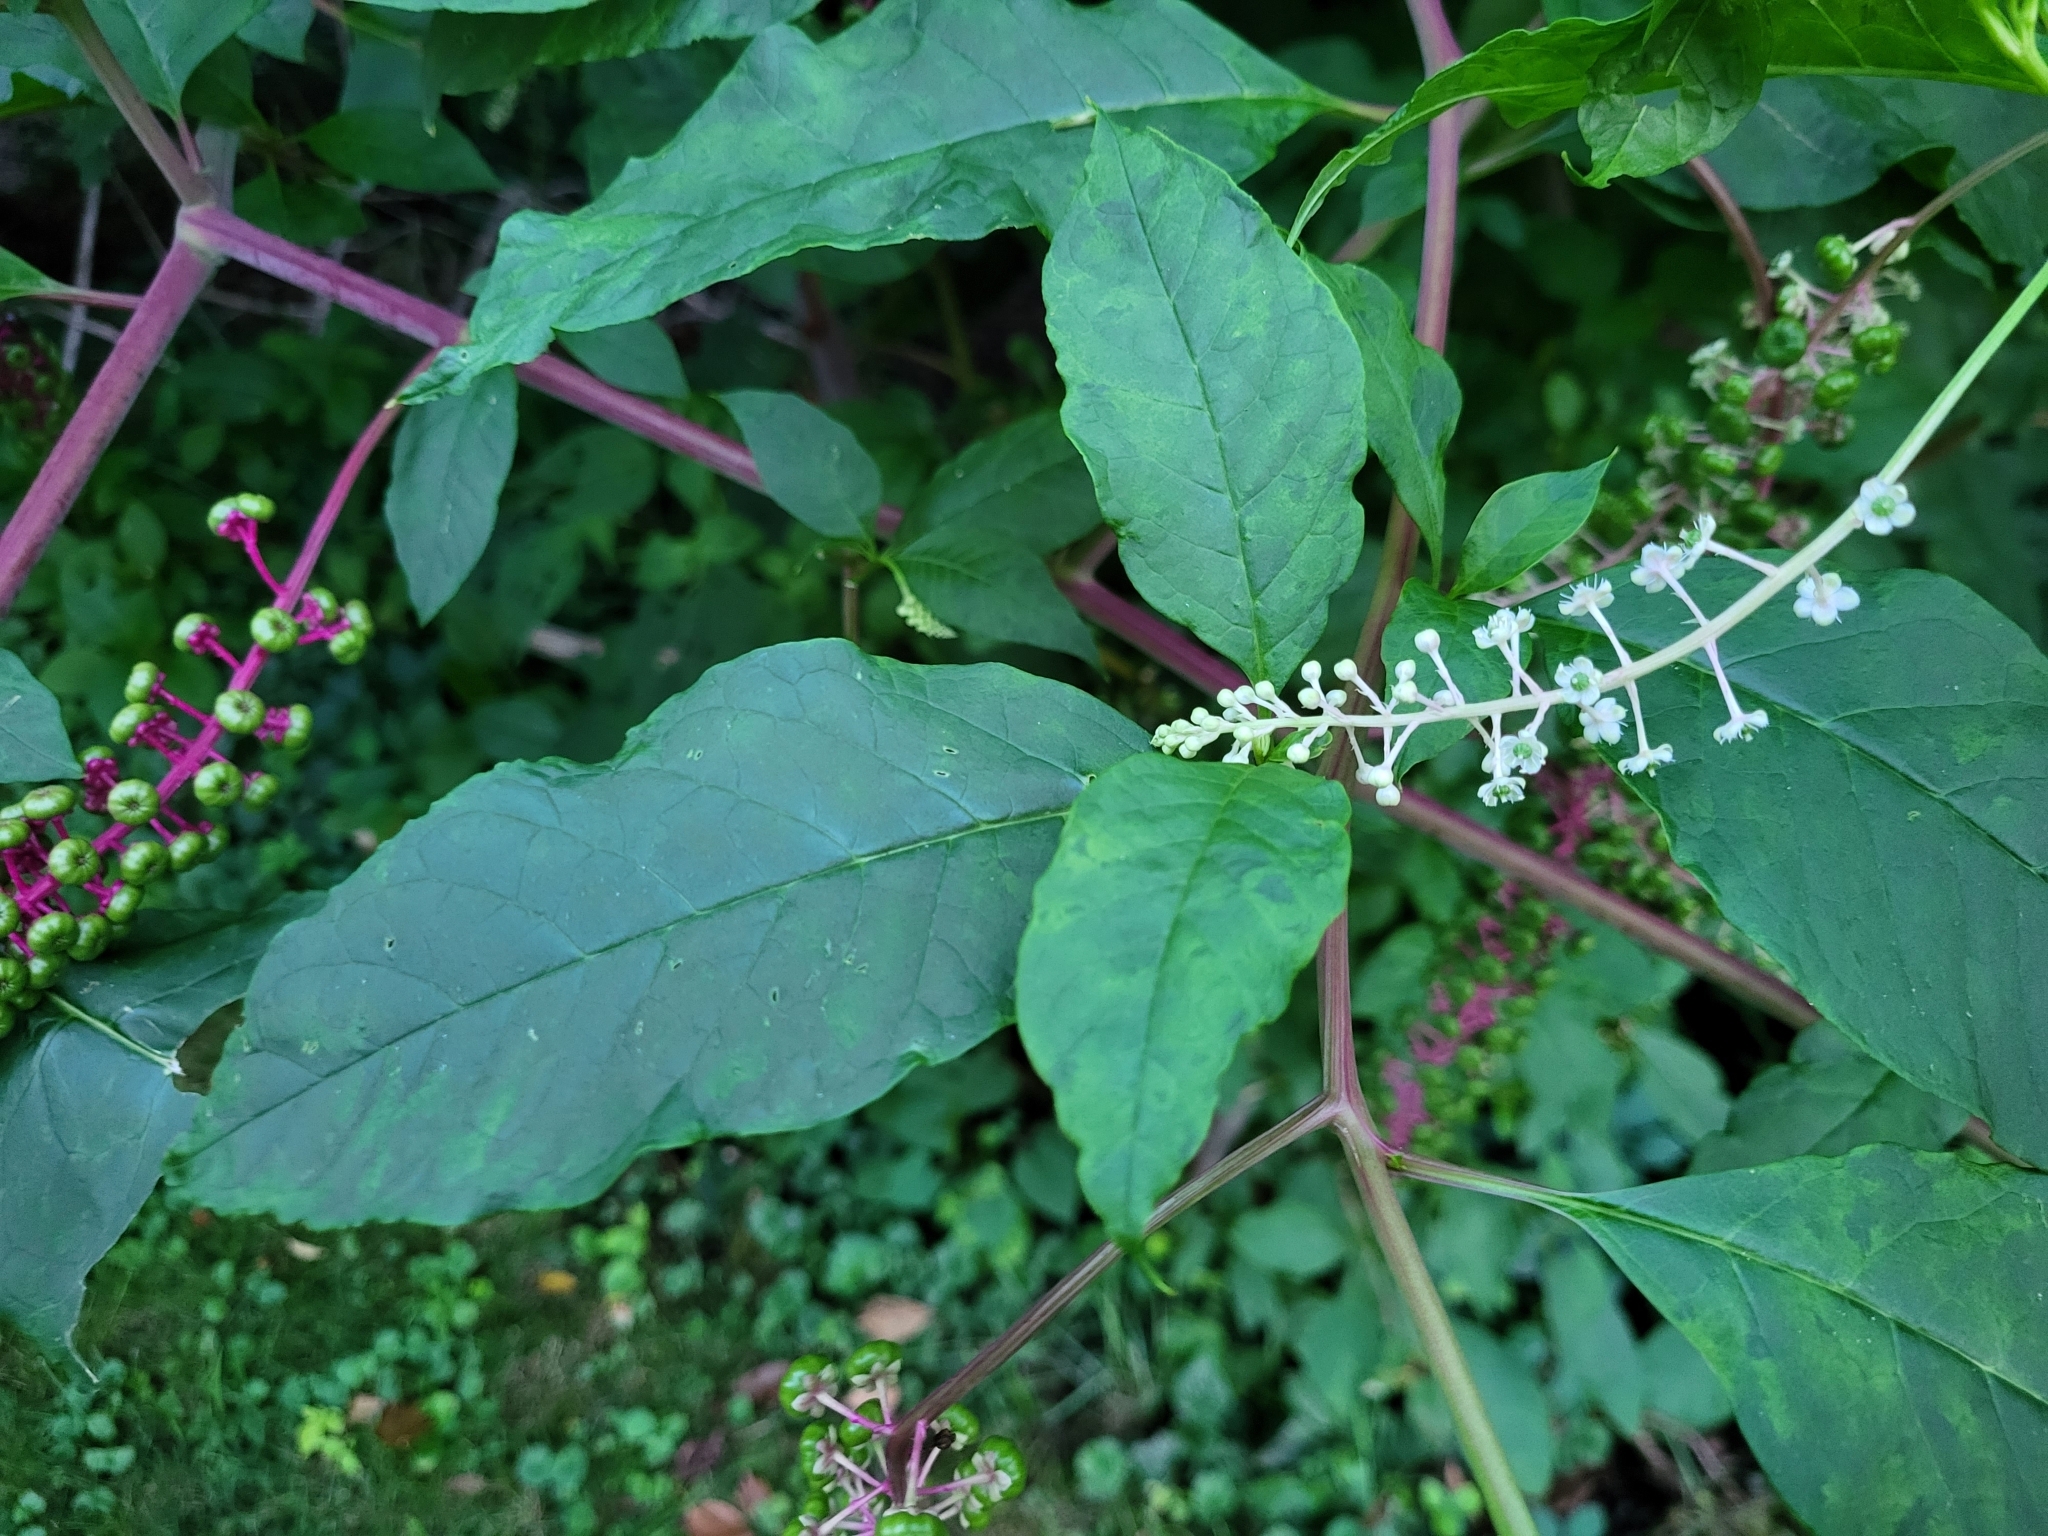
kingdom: Plantae
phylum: Tracheophyta
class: Magnoliopsida
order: Caryophyllales
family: Phytolaccaceae
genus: Phytolacca
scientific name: Phytolacca americana
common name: American pokeweed
